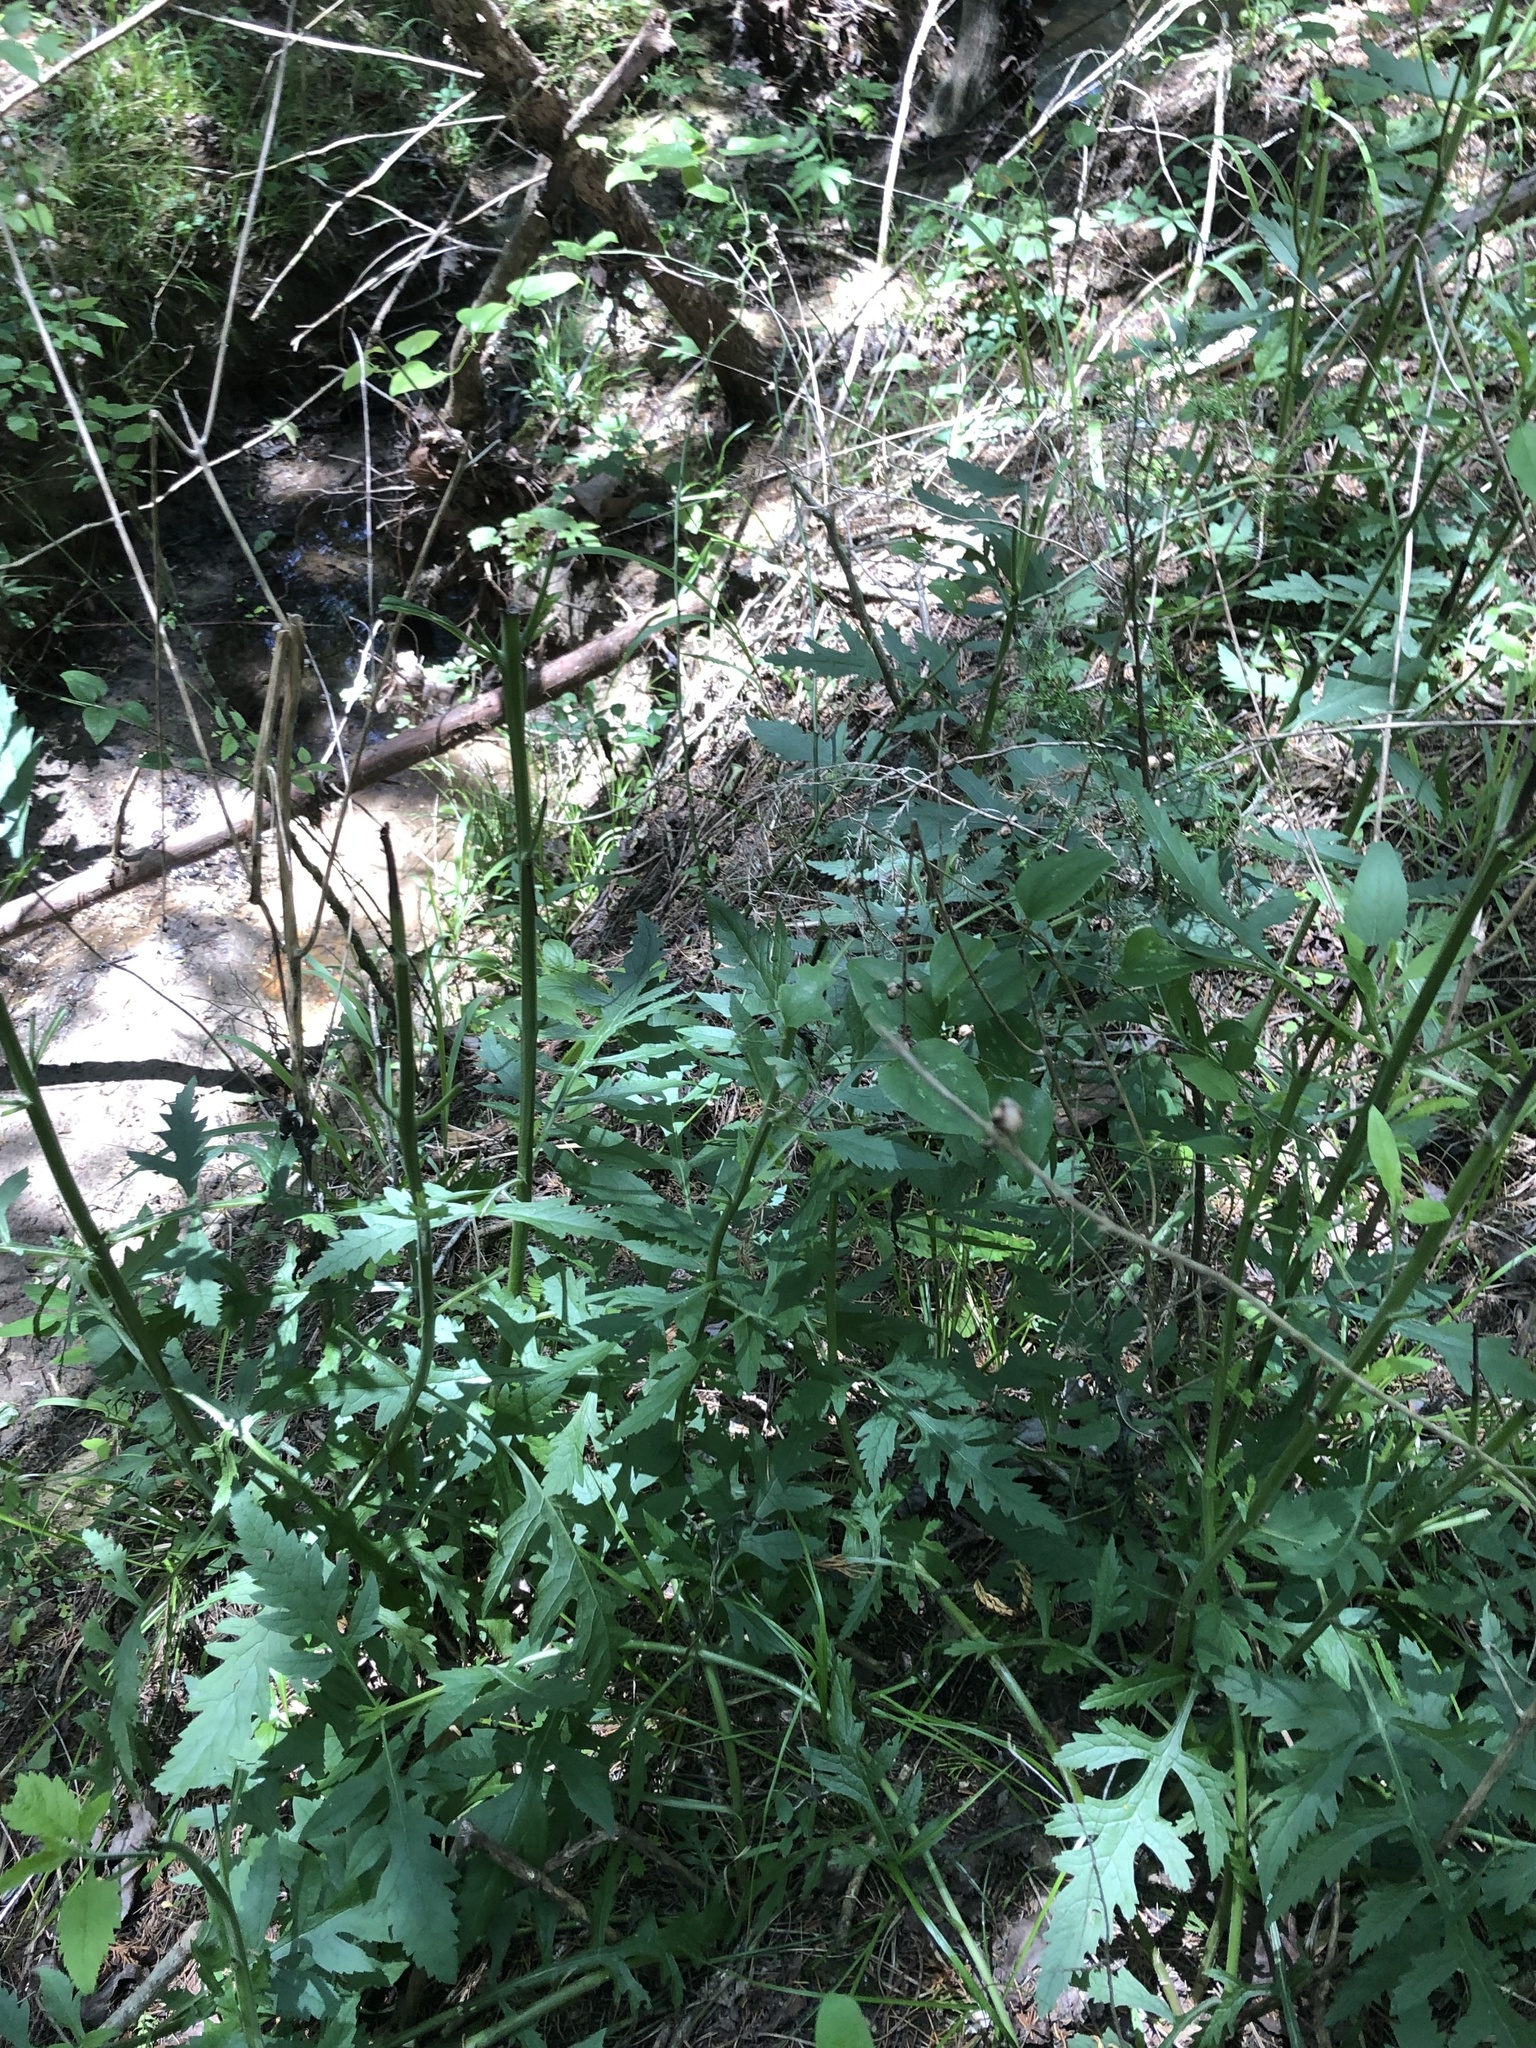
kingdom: Plantae
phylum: Tracheophyta
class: Magnoliopsida
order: Lamiales
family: Orobanchaceae
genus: Dasistoma
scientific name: Dasistoma macrophyllum
